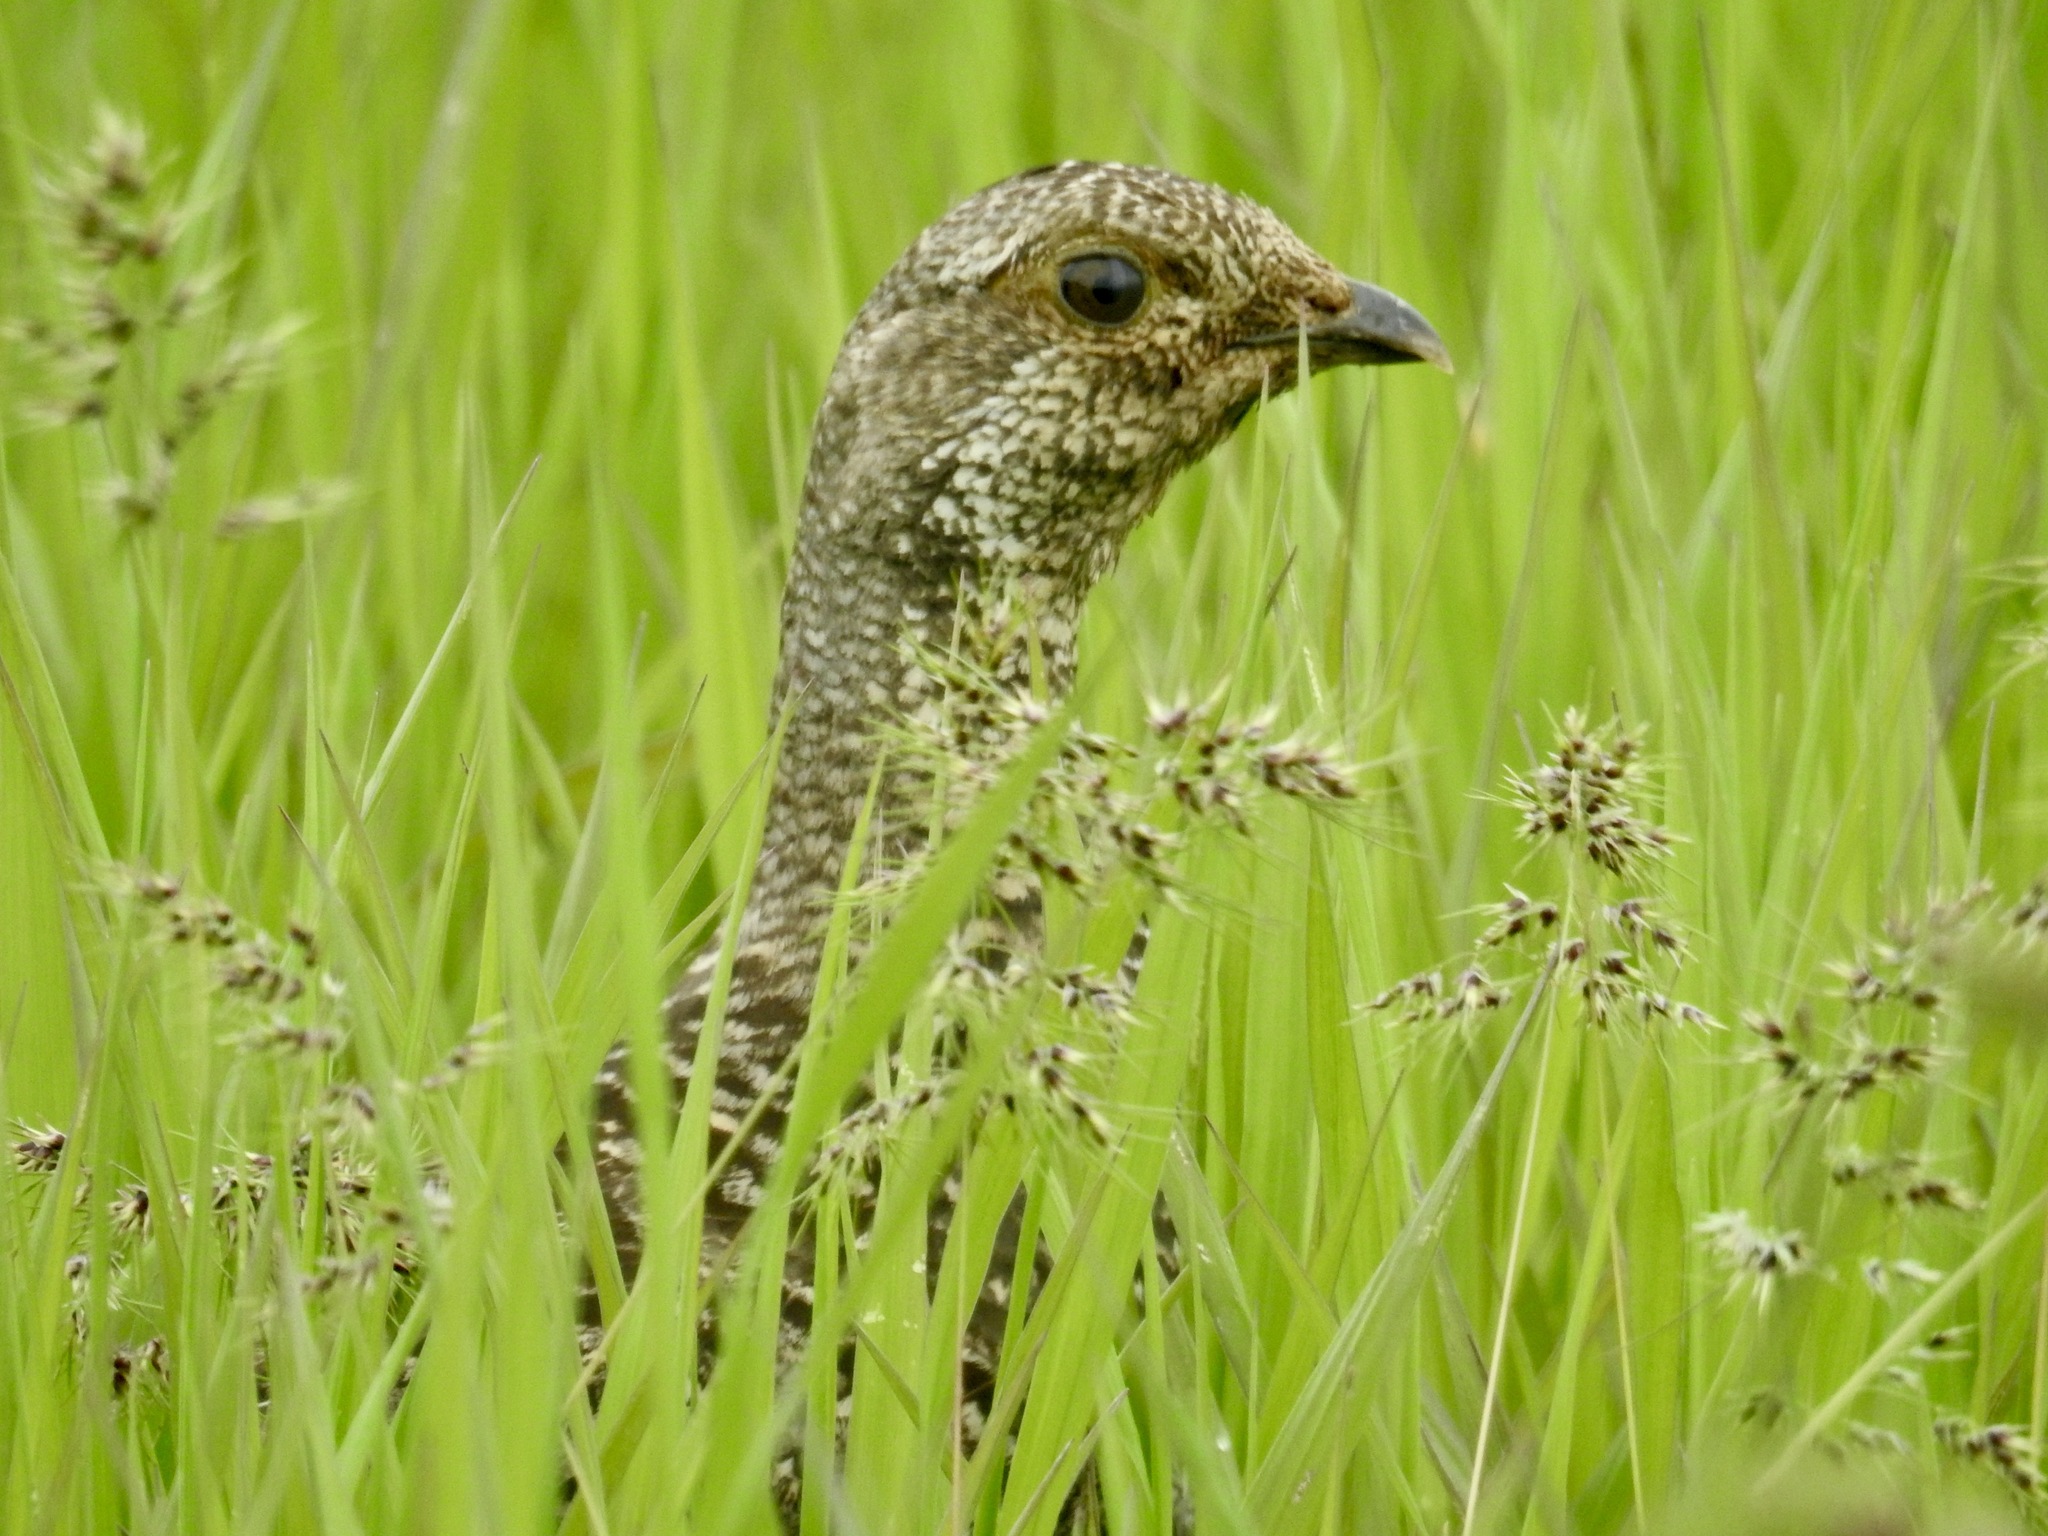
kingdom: Animalia
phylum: Chordata
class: Aves
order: Galliformes
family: Phasianidae
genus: Dendragapus
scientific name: Dendragapus obscurus
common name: Dusky grouse
